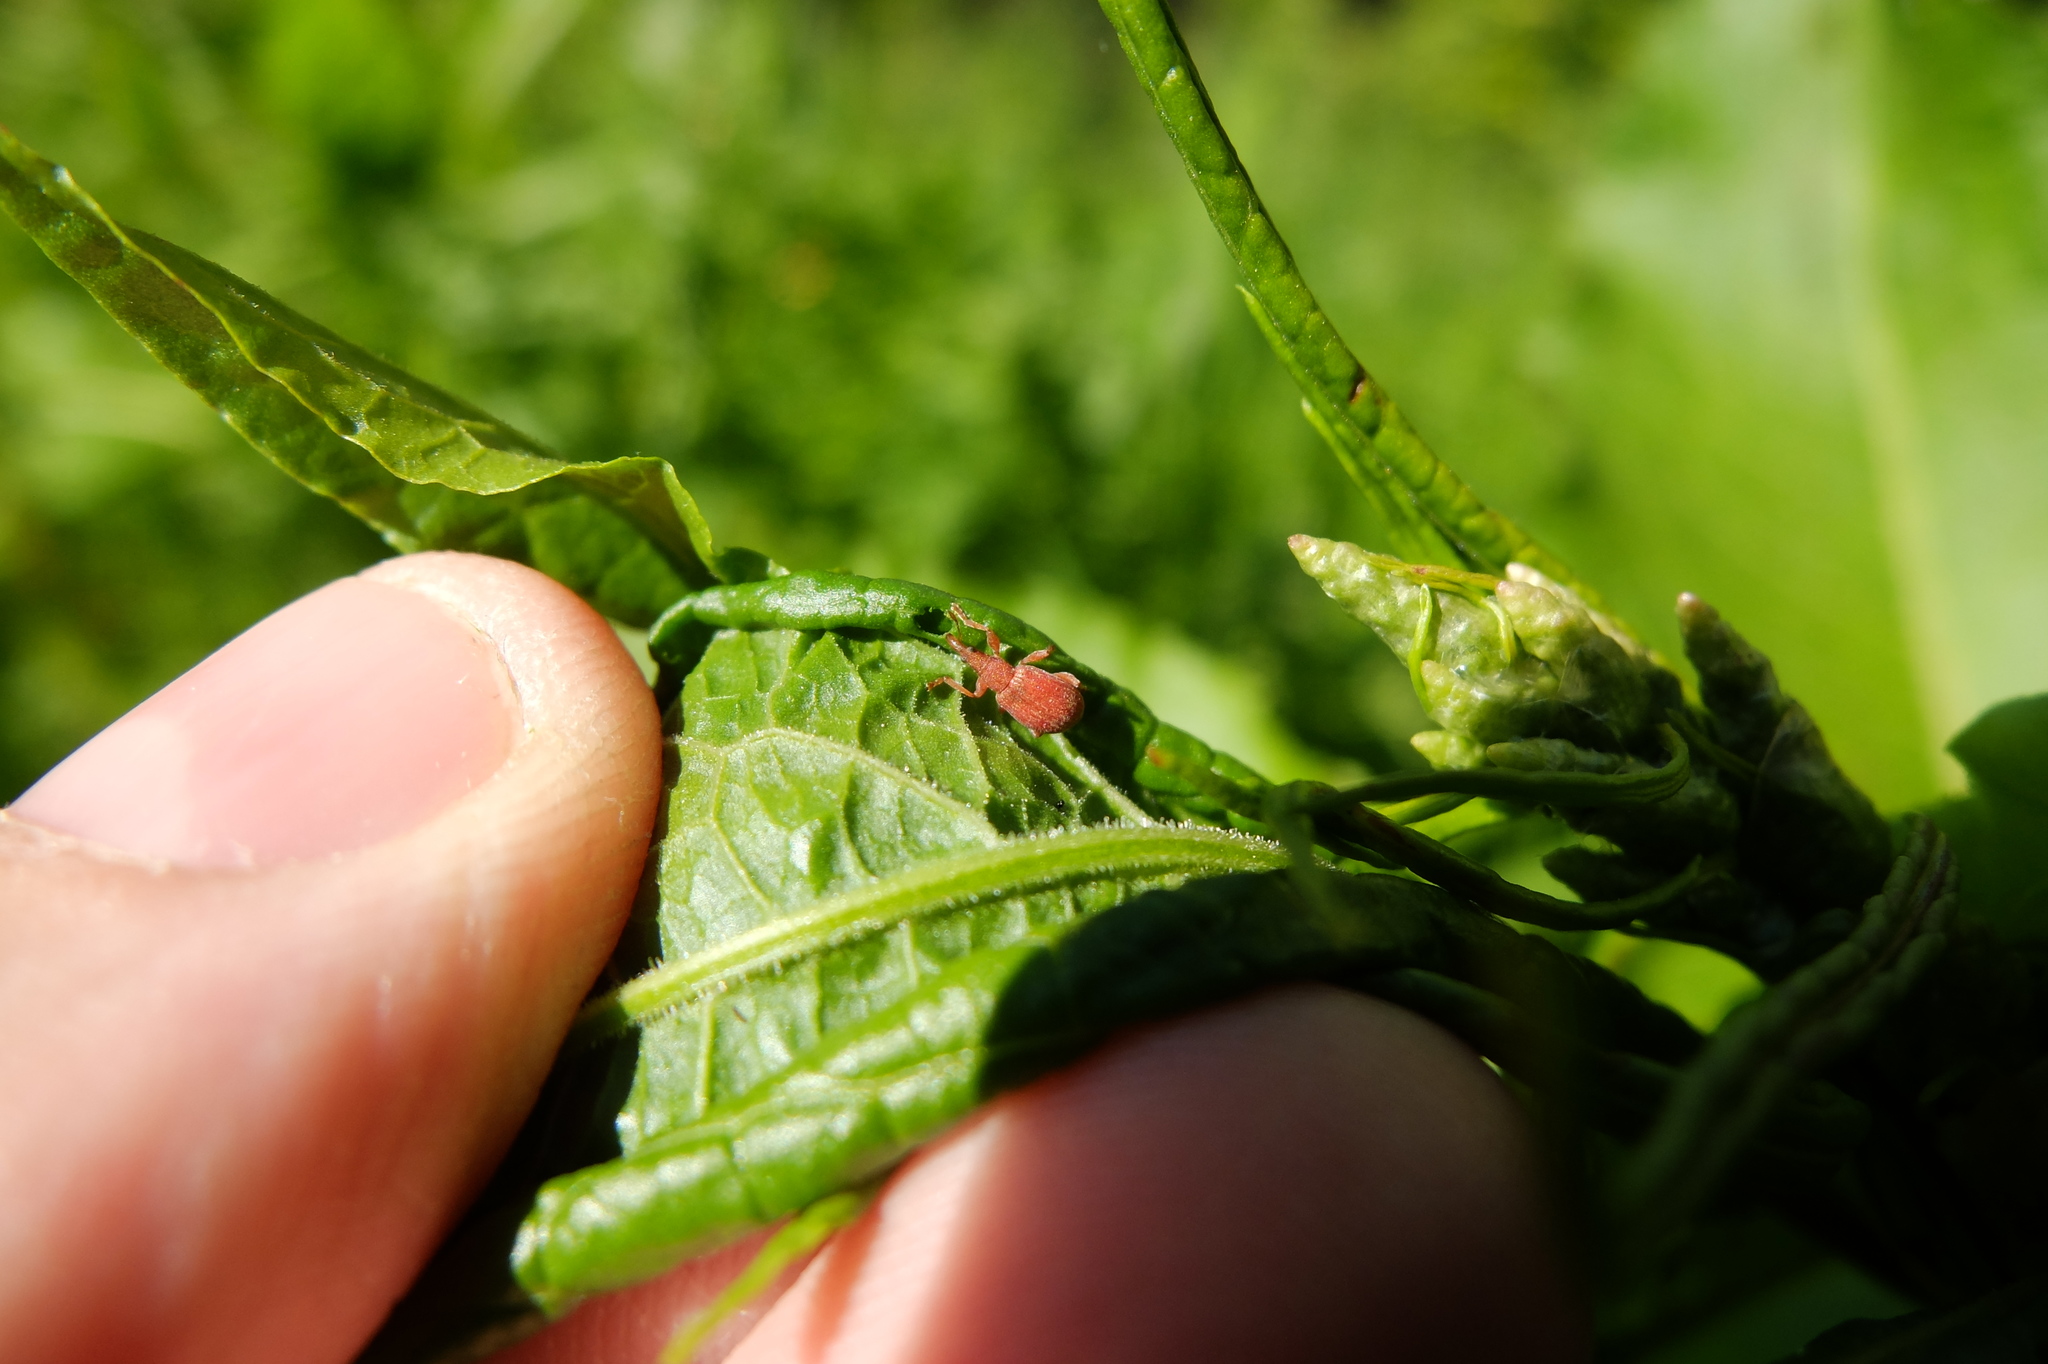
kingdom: Animalia
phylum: Arthropoda
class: Insecta
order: Coleoptera
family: Apionidae
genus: Apion
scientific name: Apion frumentarium
